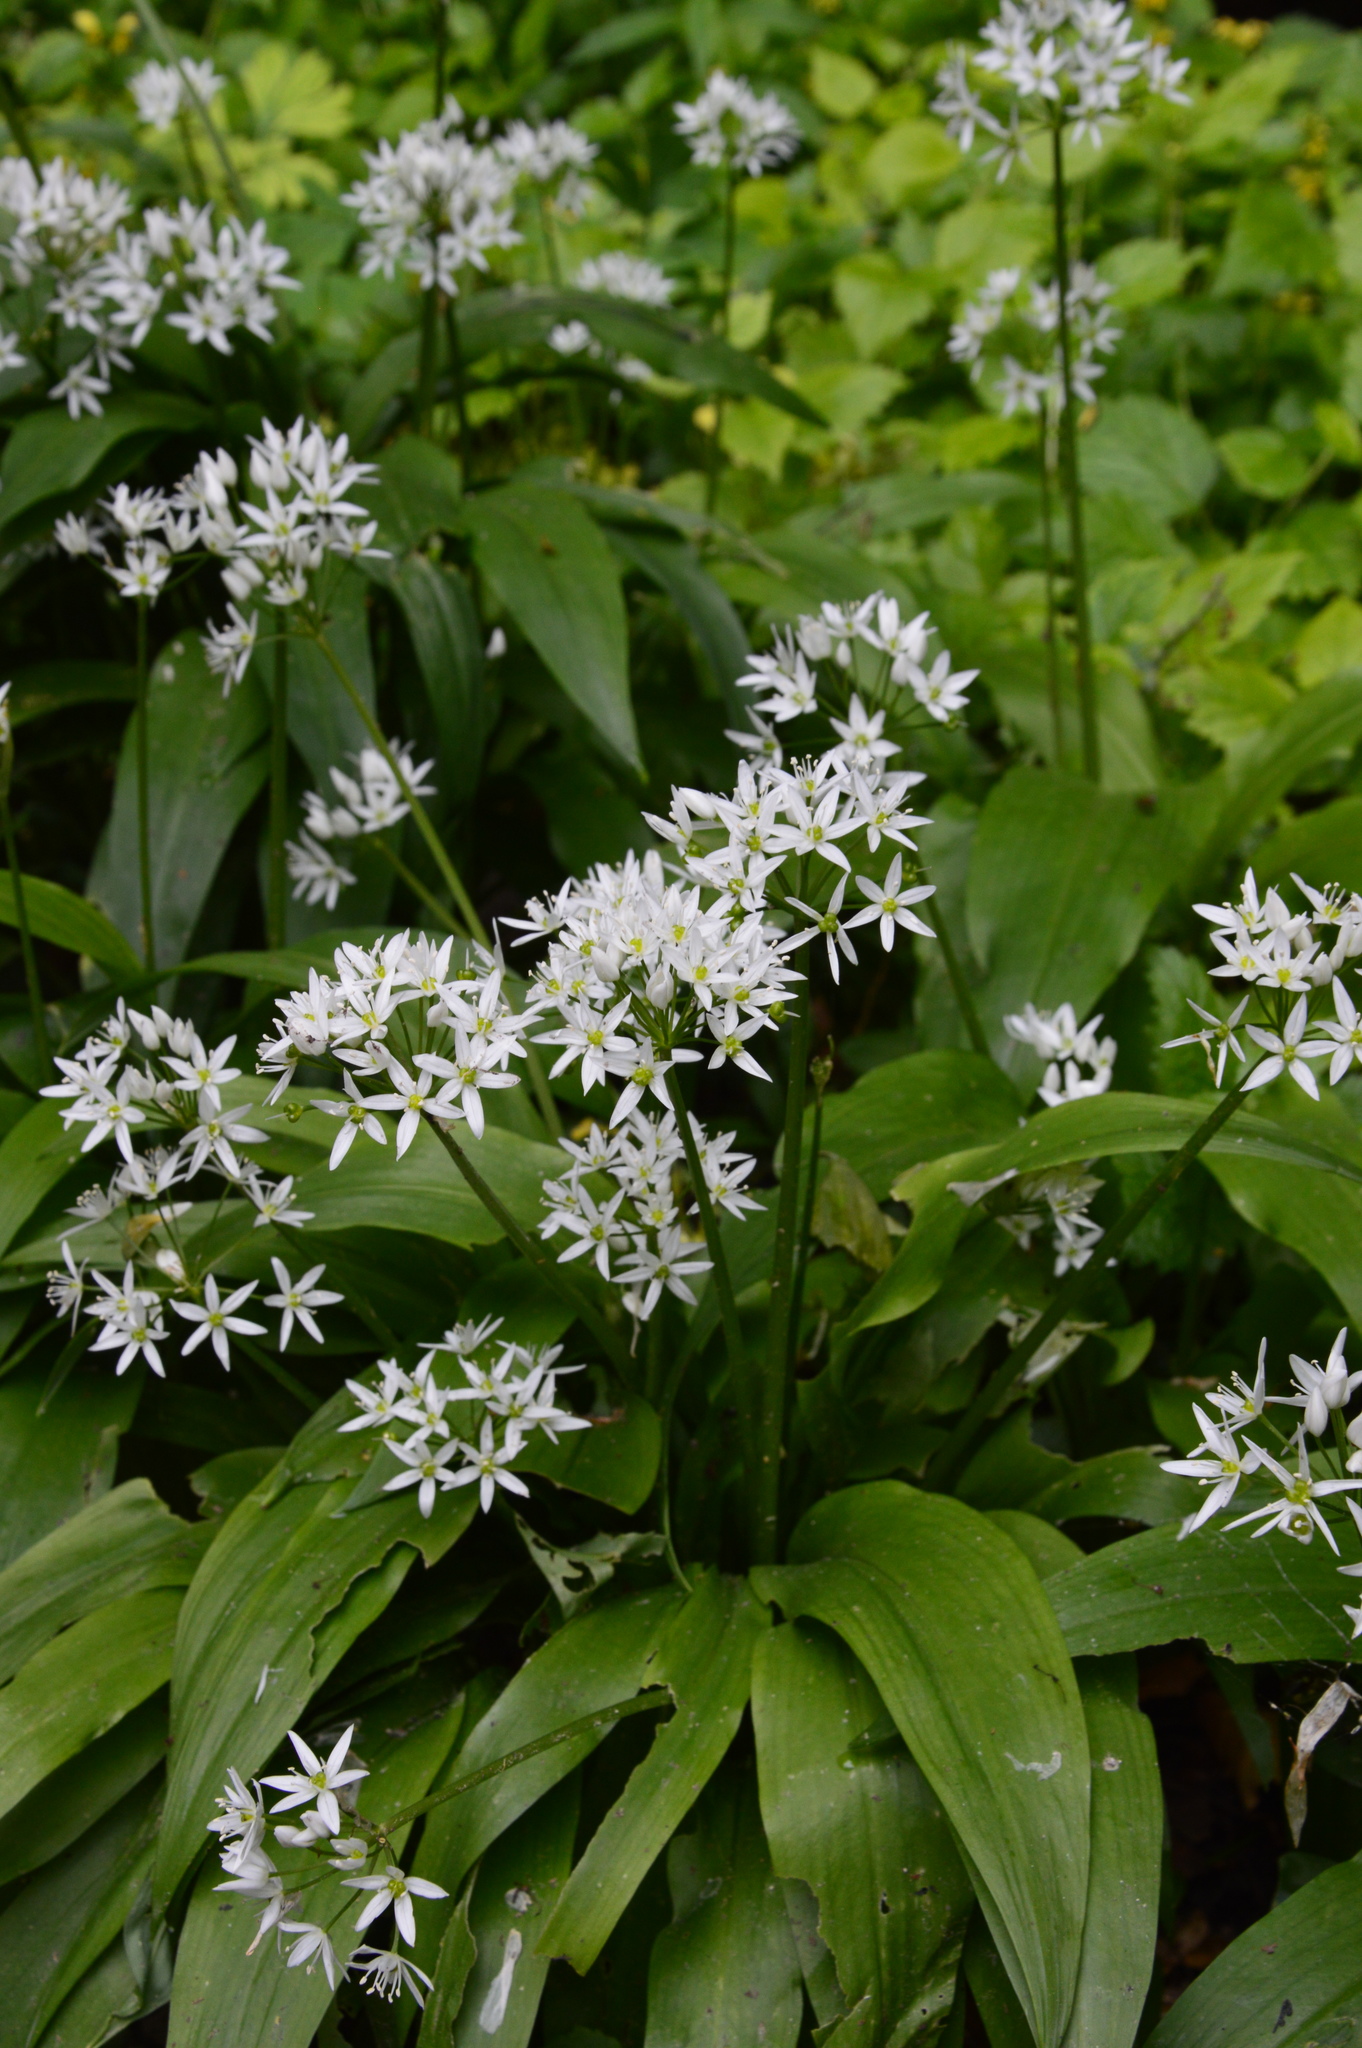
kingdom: Plantae
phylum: Tracheophyta
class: Liliopsida
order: Asparagales
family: Amaryllidaceae
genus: Allium
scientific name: Allium ursinum
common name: Ramsons
